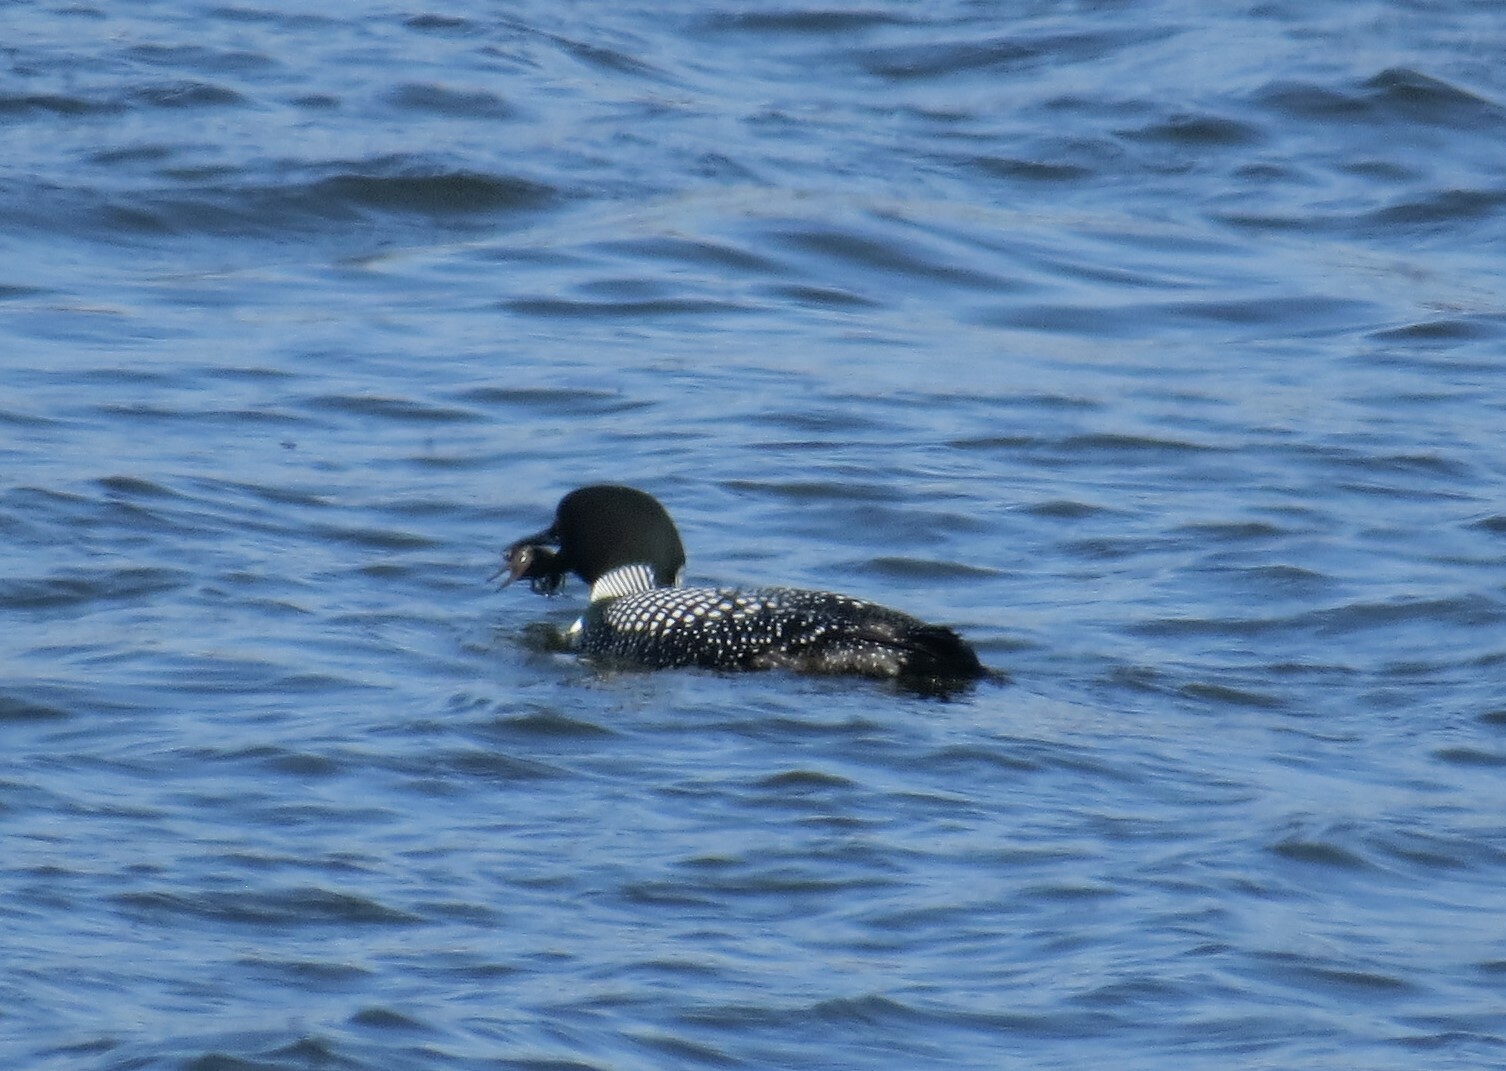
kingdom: Animalia
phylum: Chordata
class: Aves
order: Gaviiformes
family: Gaviidae
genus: Gavia
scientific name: Gavia immer
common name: Common loon
